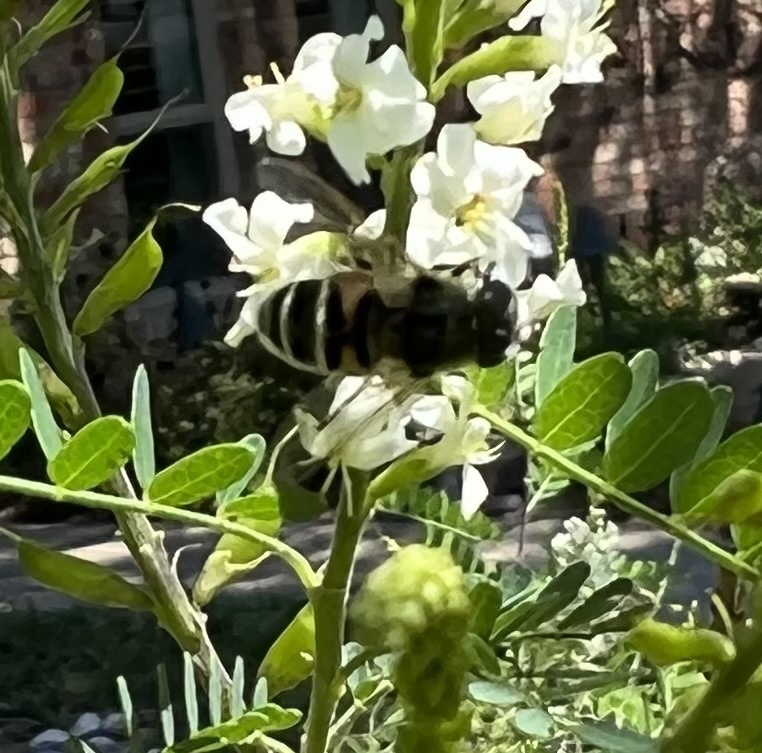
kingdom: Animalia
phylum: Arthropoda
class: Insecta
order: Diptera
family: Syrphidae
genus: Eristalis
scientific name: Eristalis stipator
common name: Yellow-shouldered drone fly
